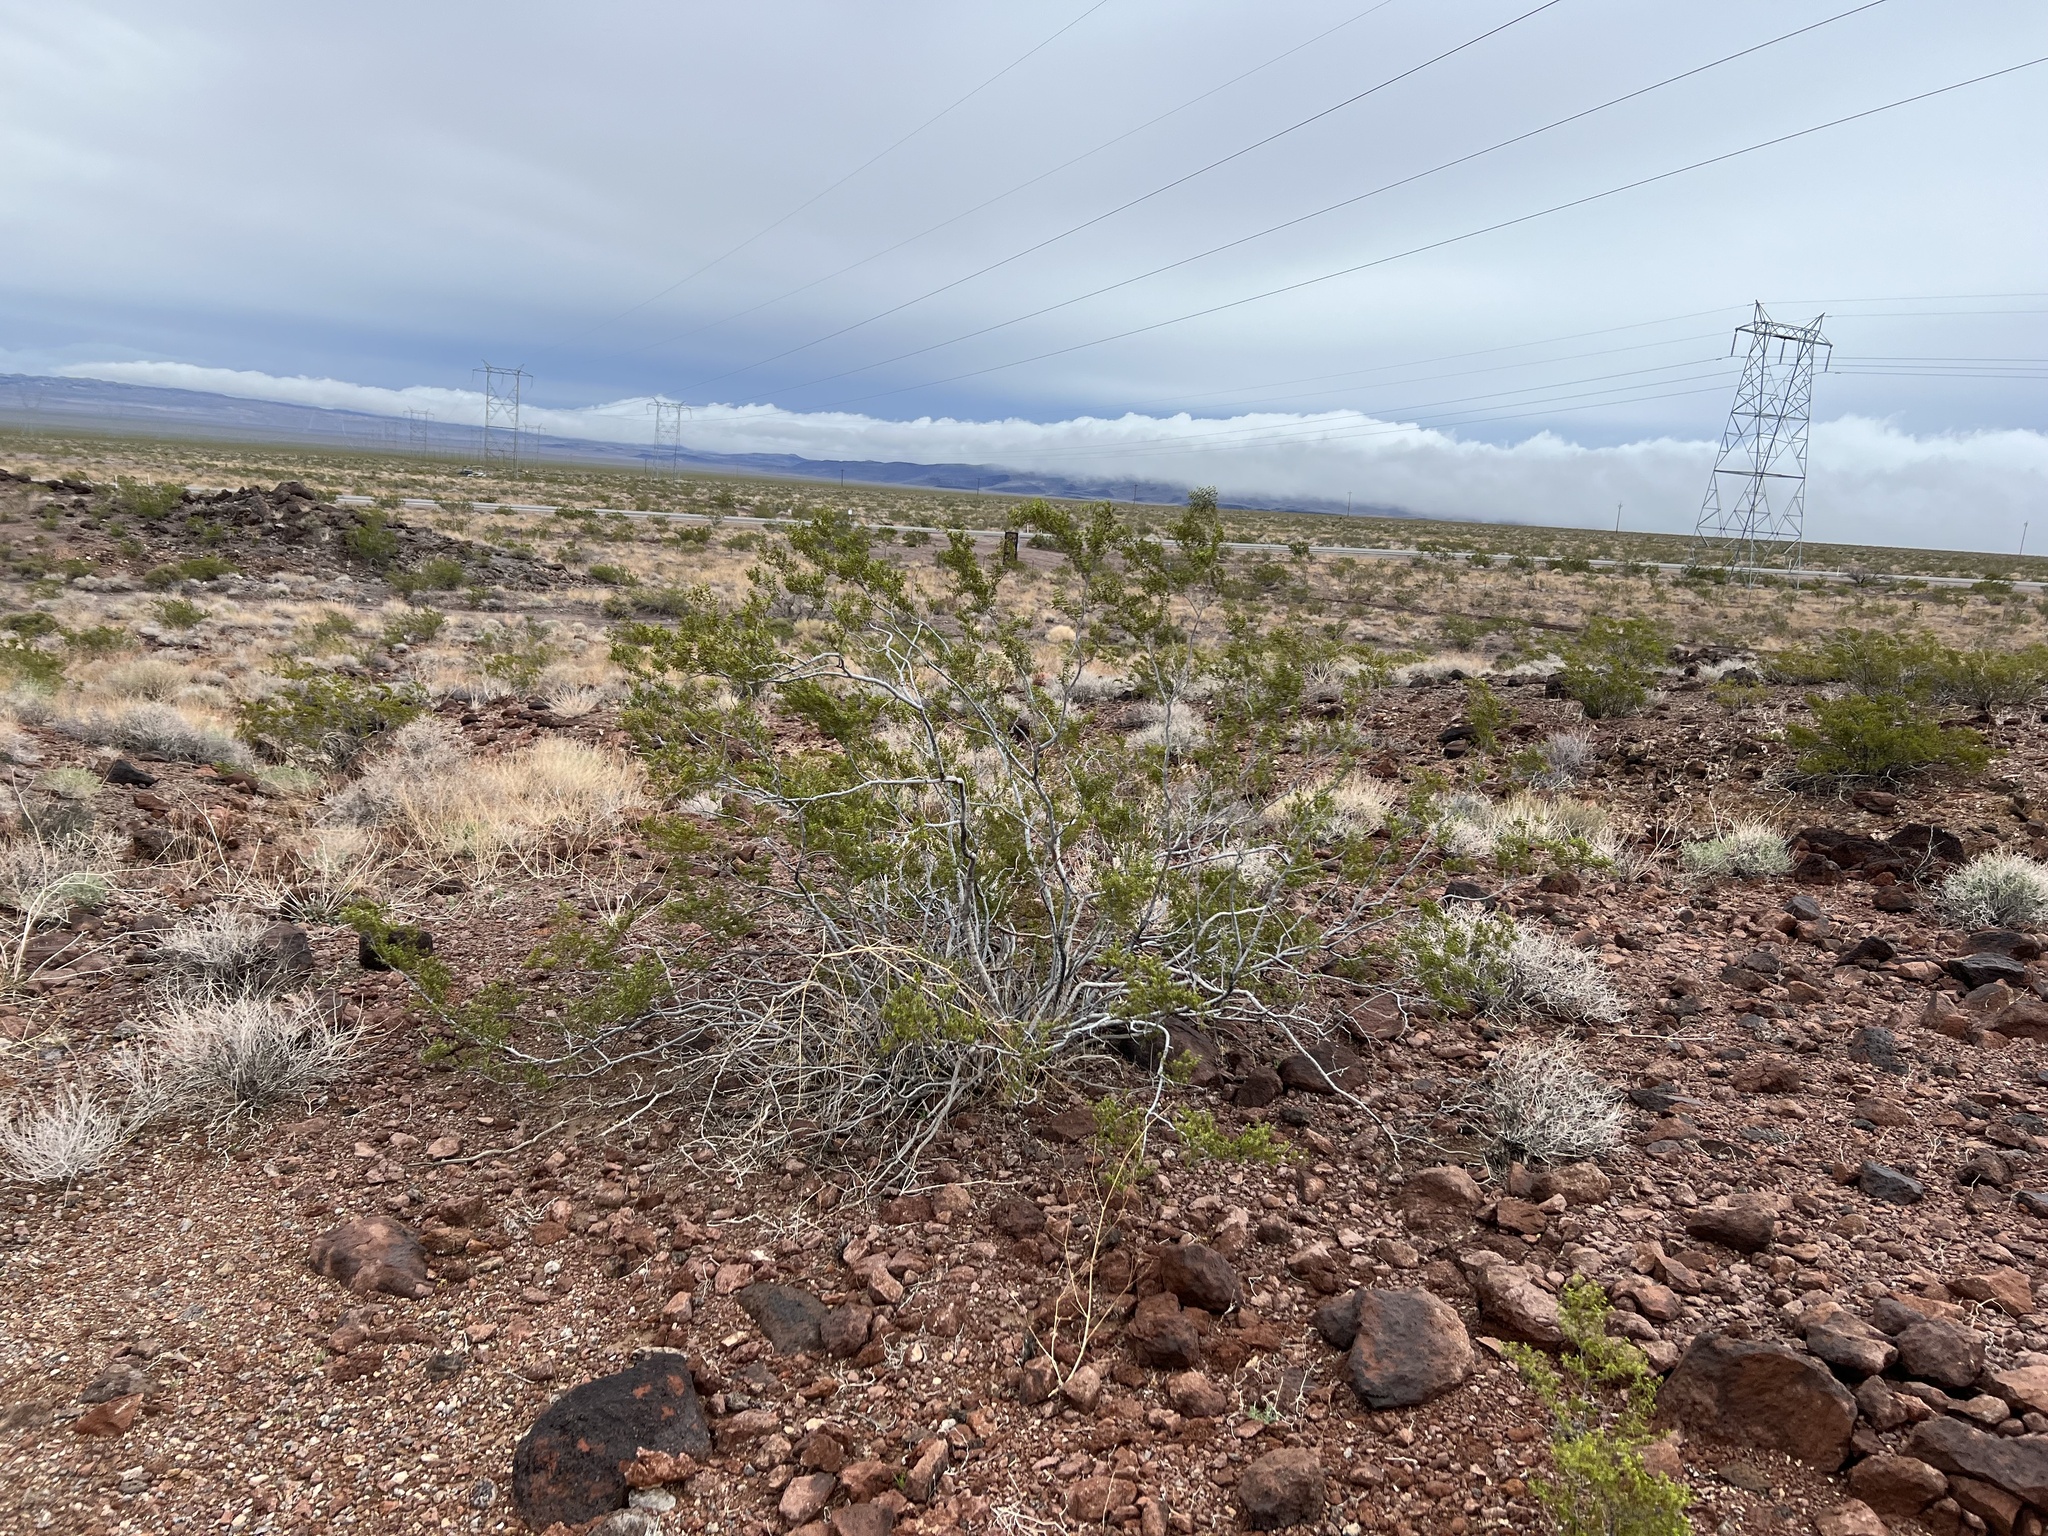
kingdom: Plantae
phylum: Tracheophyta
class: Magnoliopsida
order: Zygophyllales
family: Zygophyllaceae
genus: Larrea
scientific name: Larrea tridentata
